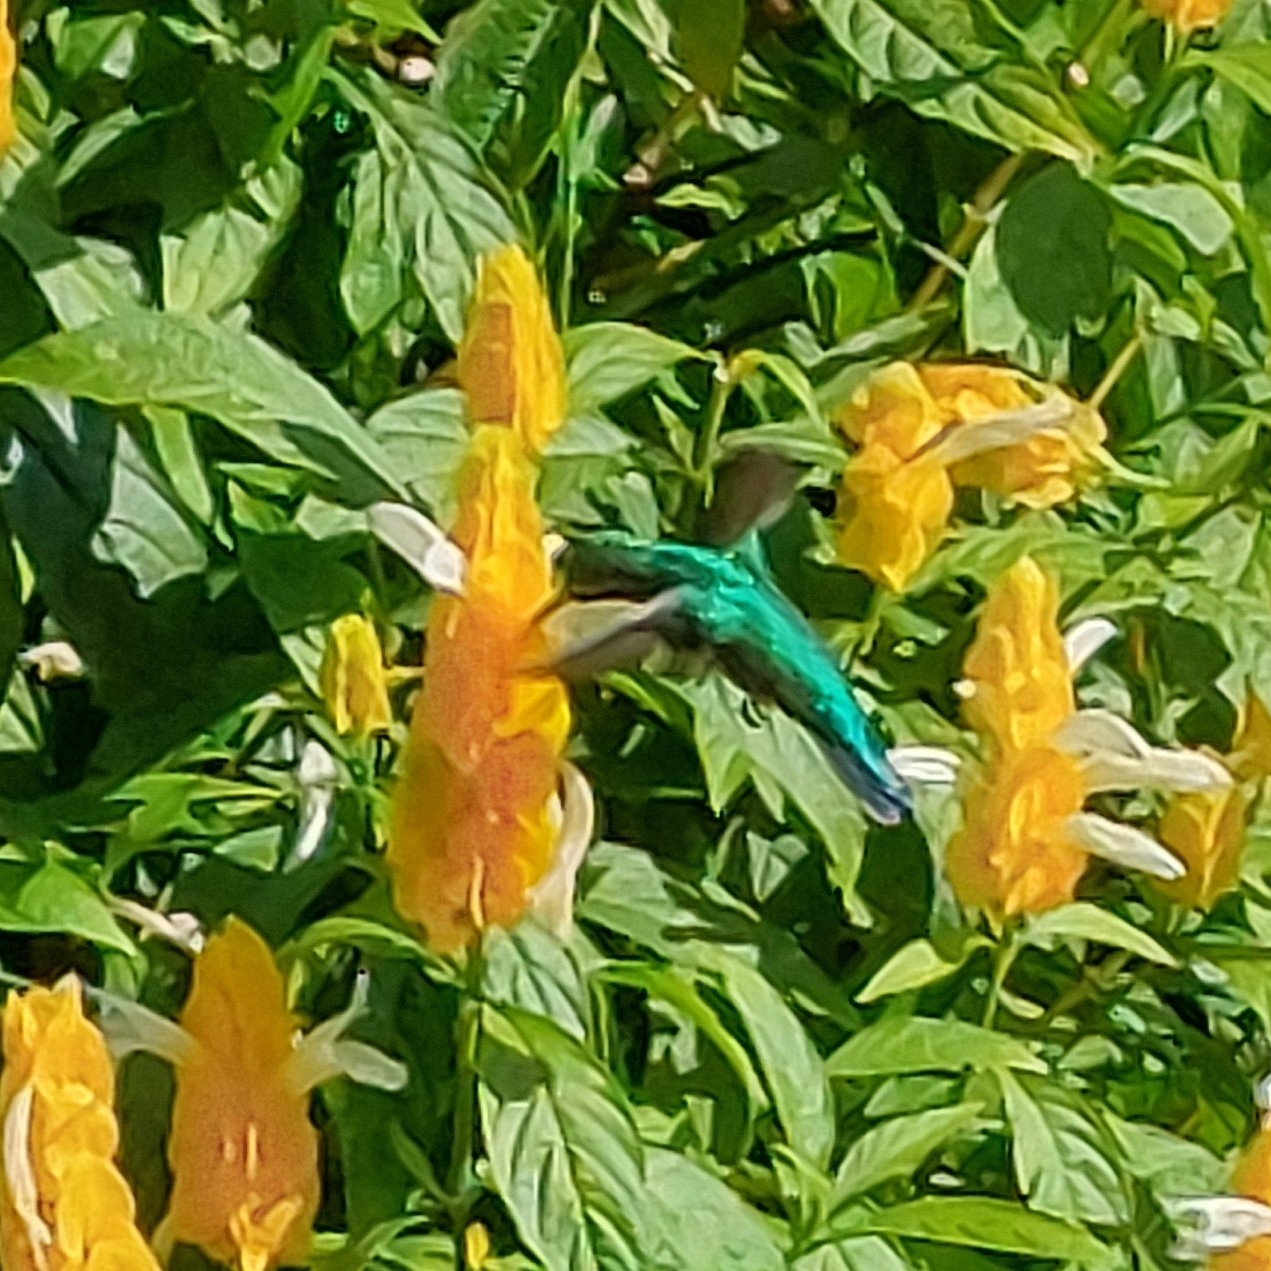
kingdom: Animalia
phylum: Chordata
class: Aves
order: Apodiformes
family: Trochilidae
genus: Chlorostilbon
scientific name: Chlorostilbon lucidus
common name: Glittering-bellied emerald
